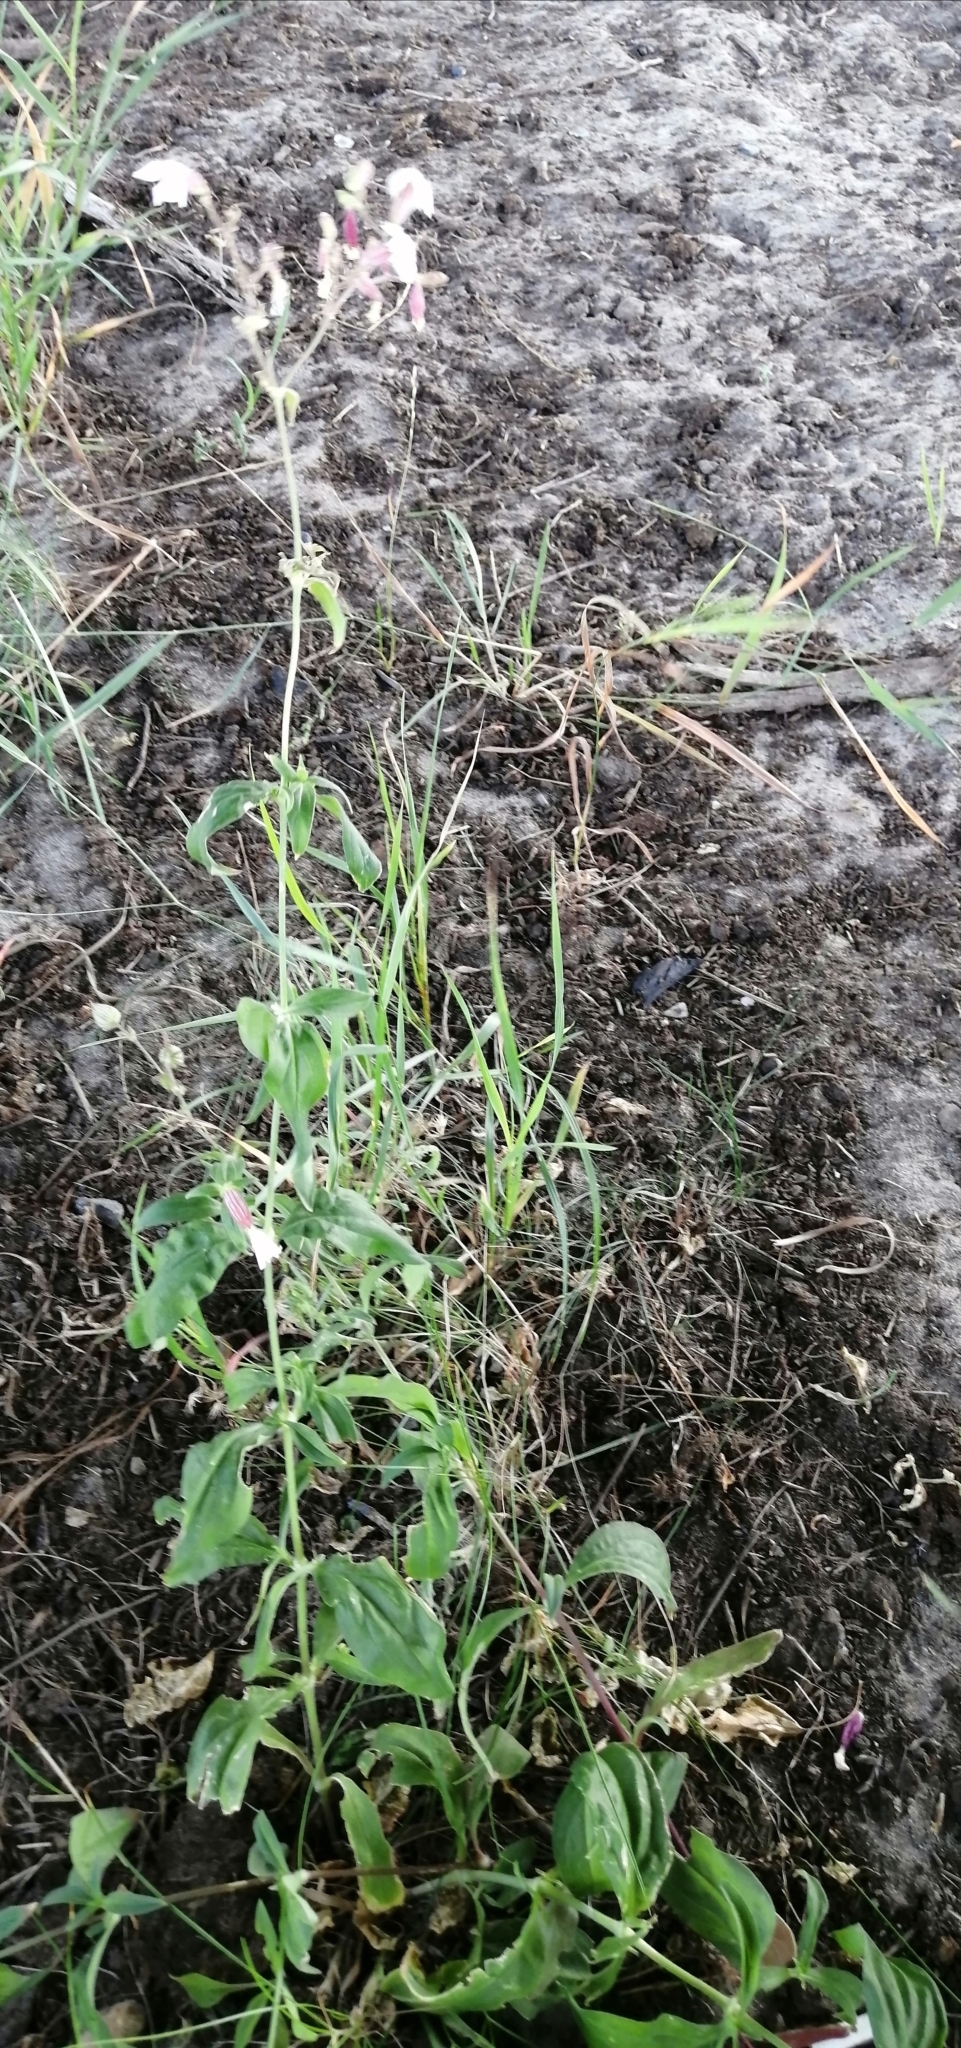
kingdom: Plantae
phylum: Tracheophyta
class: Magnoliopsida
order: Caryophyllales
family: Caryophyllaceae
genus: Silene
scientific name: Silene latifolia
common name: White campion
